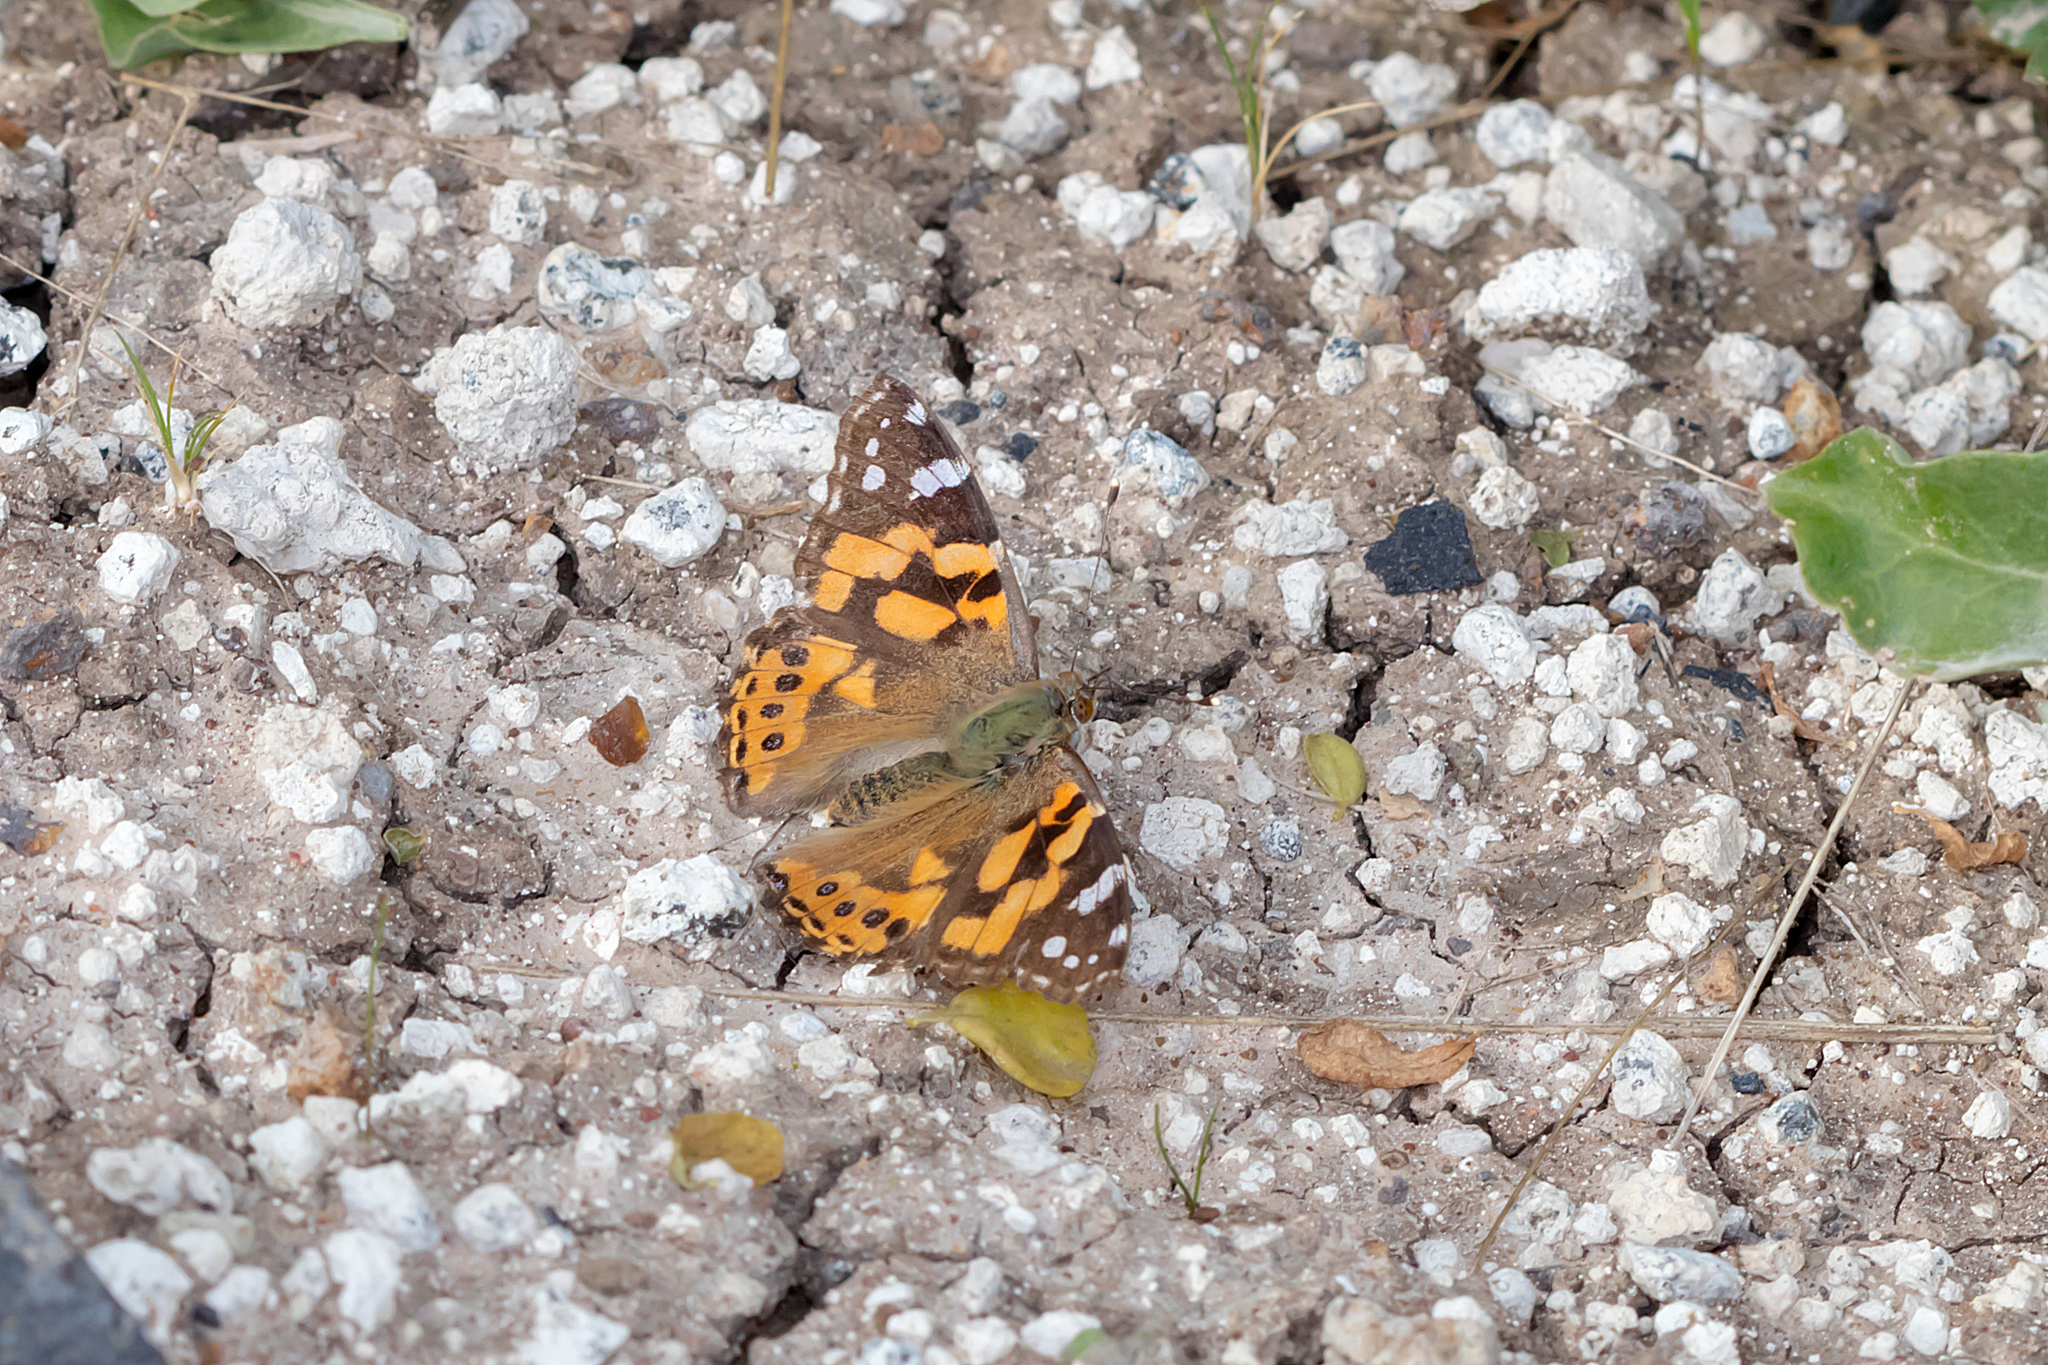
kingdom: Animalia
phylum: Arthropoda
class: Insecta
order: Lepidoptera
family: Nymphalidae
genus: Vanessa
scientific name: Vanessa kershawi
